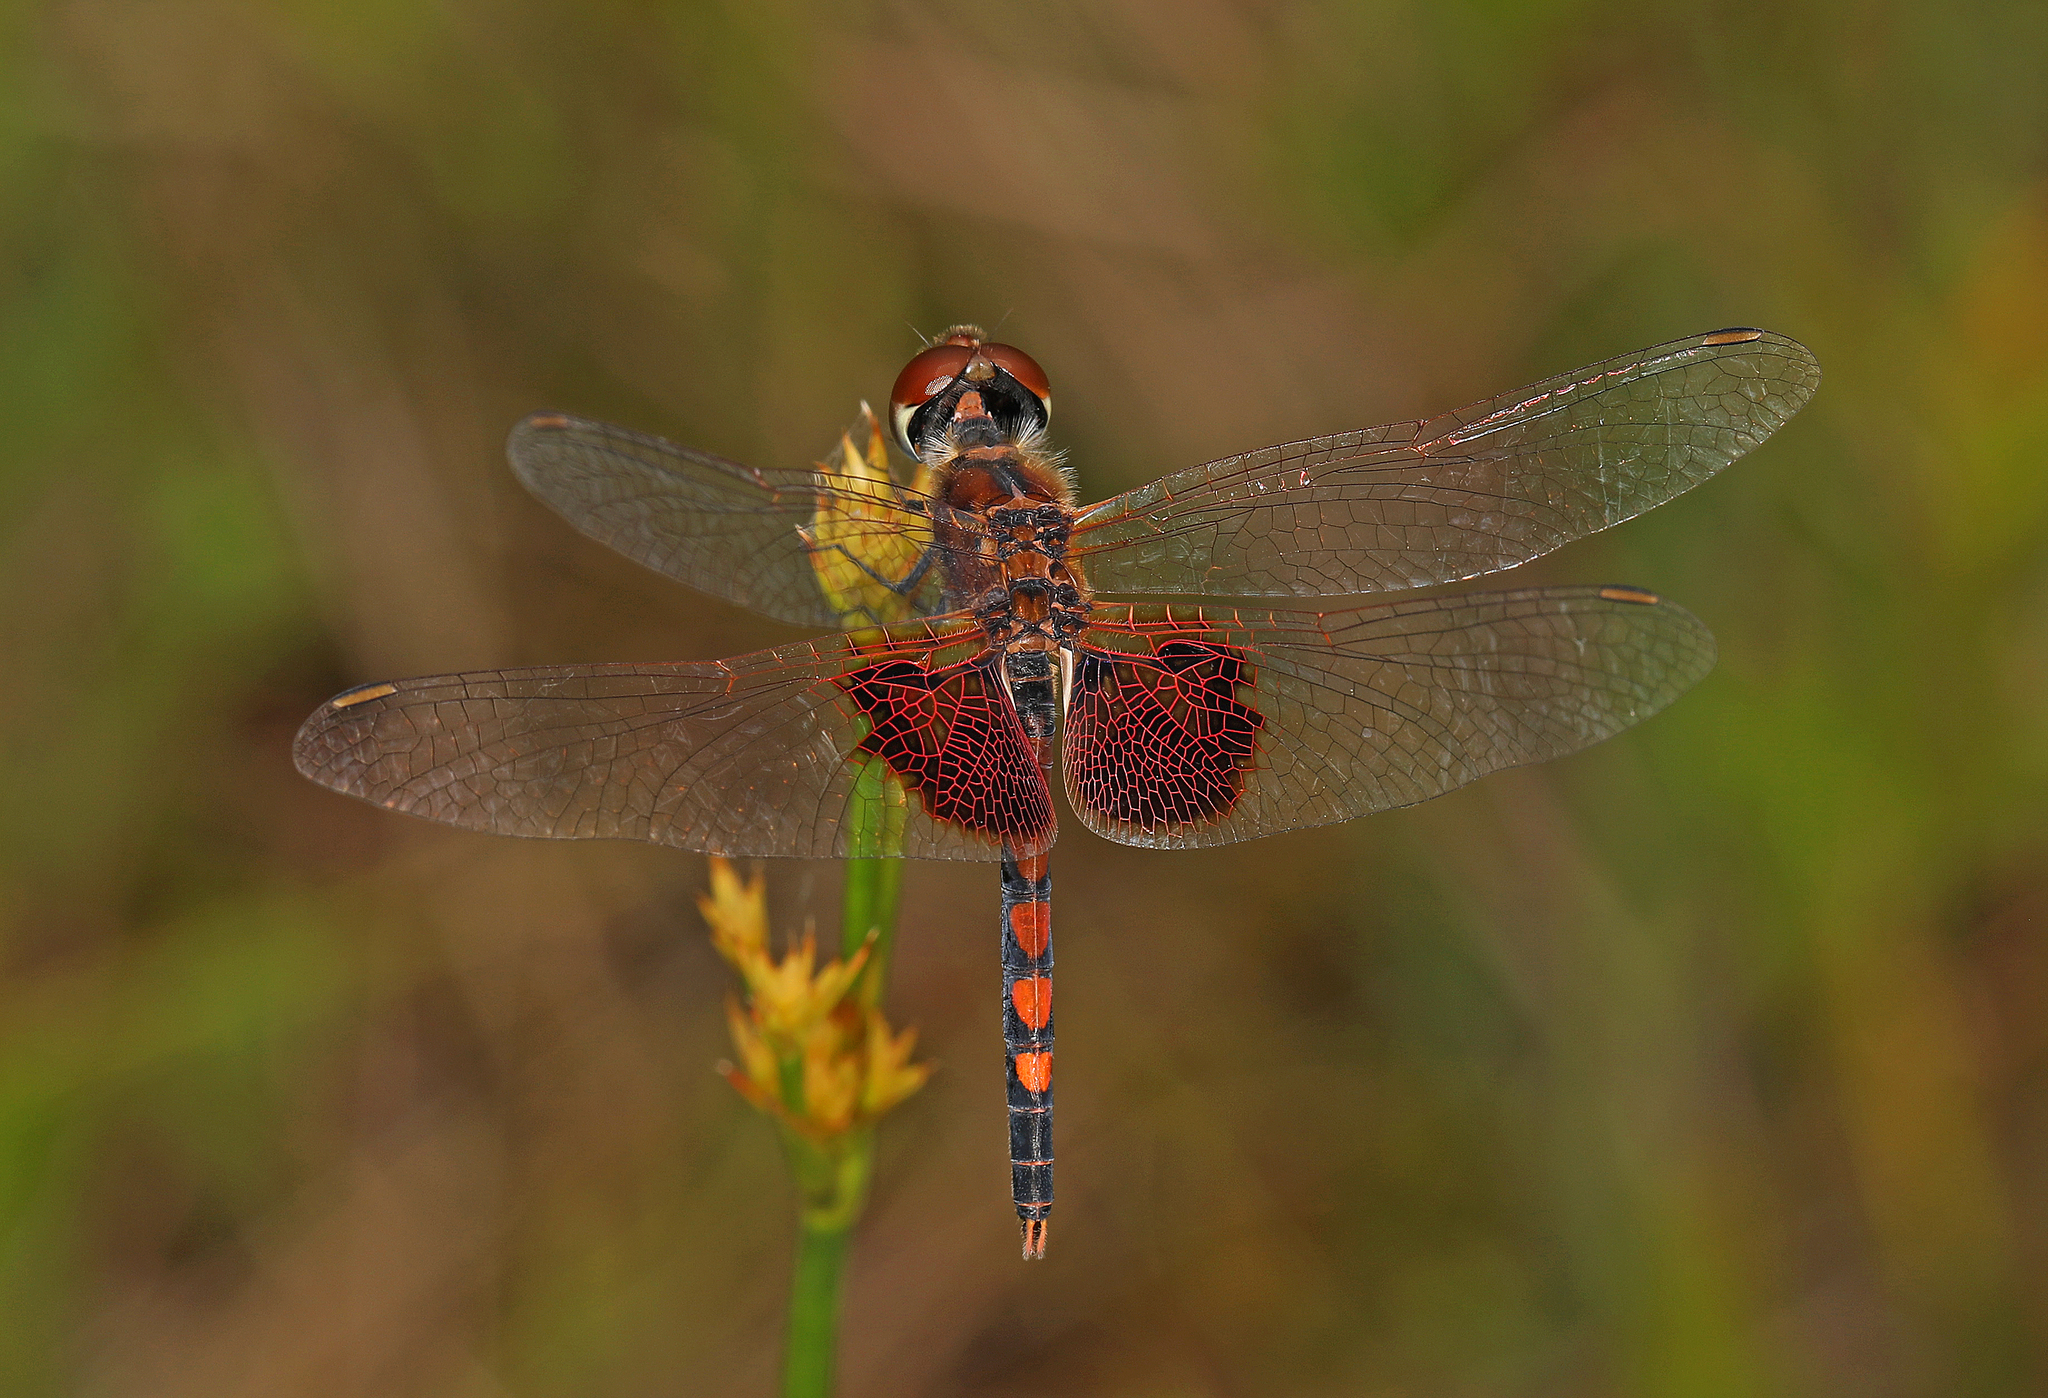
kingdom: Animalia
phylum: Arthropoda
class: Insecta
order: Odonata
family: Libellulidae
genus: Celithemis
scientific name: Celithemis amanda
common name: Amanda's pennant
